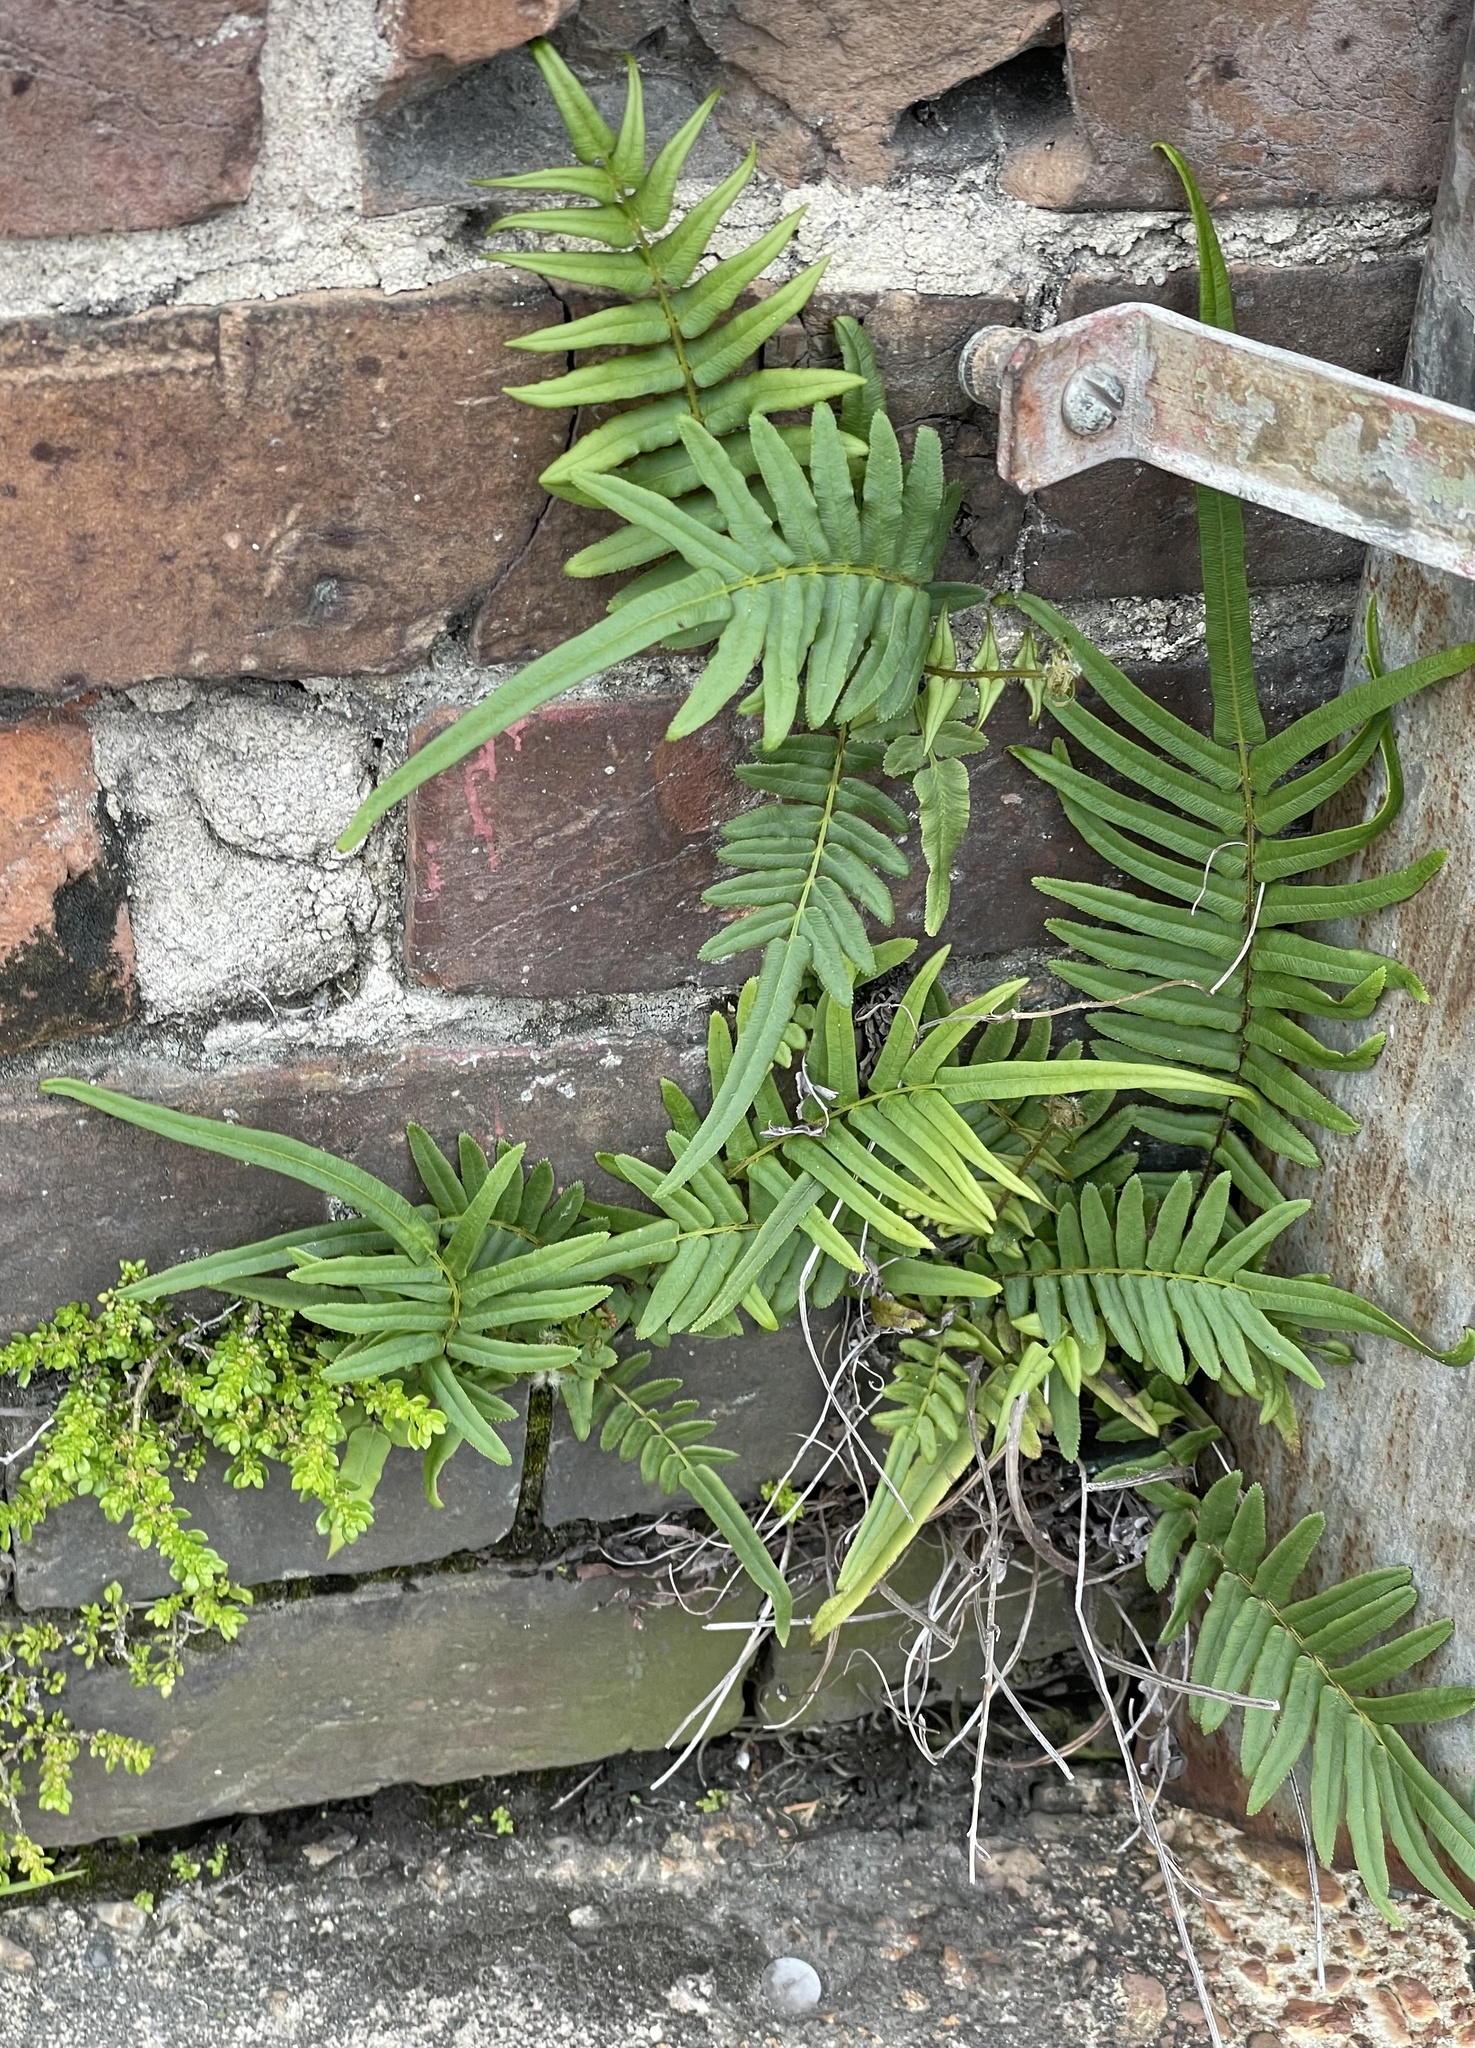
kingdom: Plantae
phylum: Tracheophyta
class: Polypodiopsida
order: Polypodiales
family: Pteridaceae
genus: Pteris
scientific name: Pteris vittata
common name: Ladder brake
